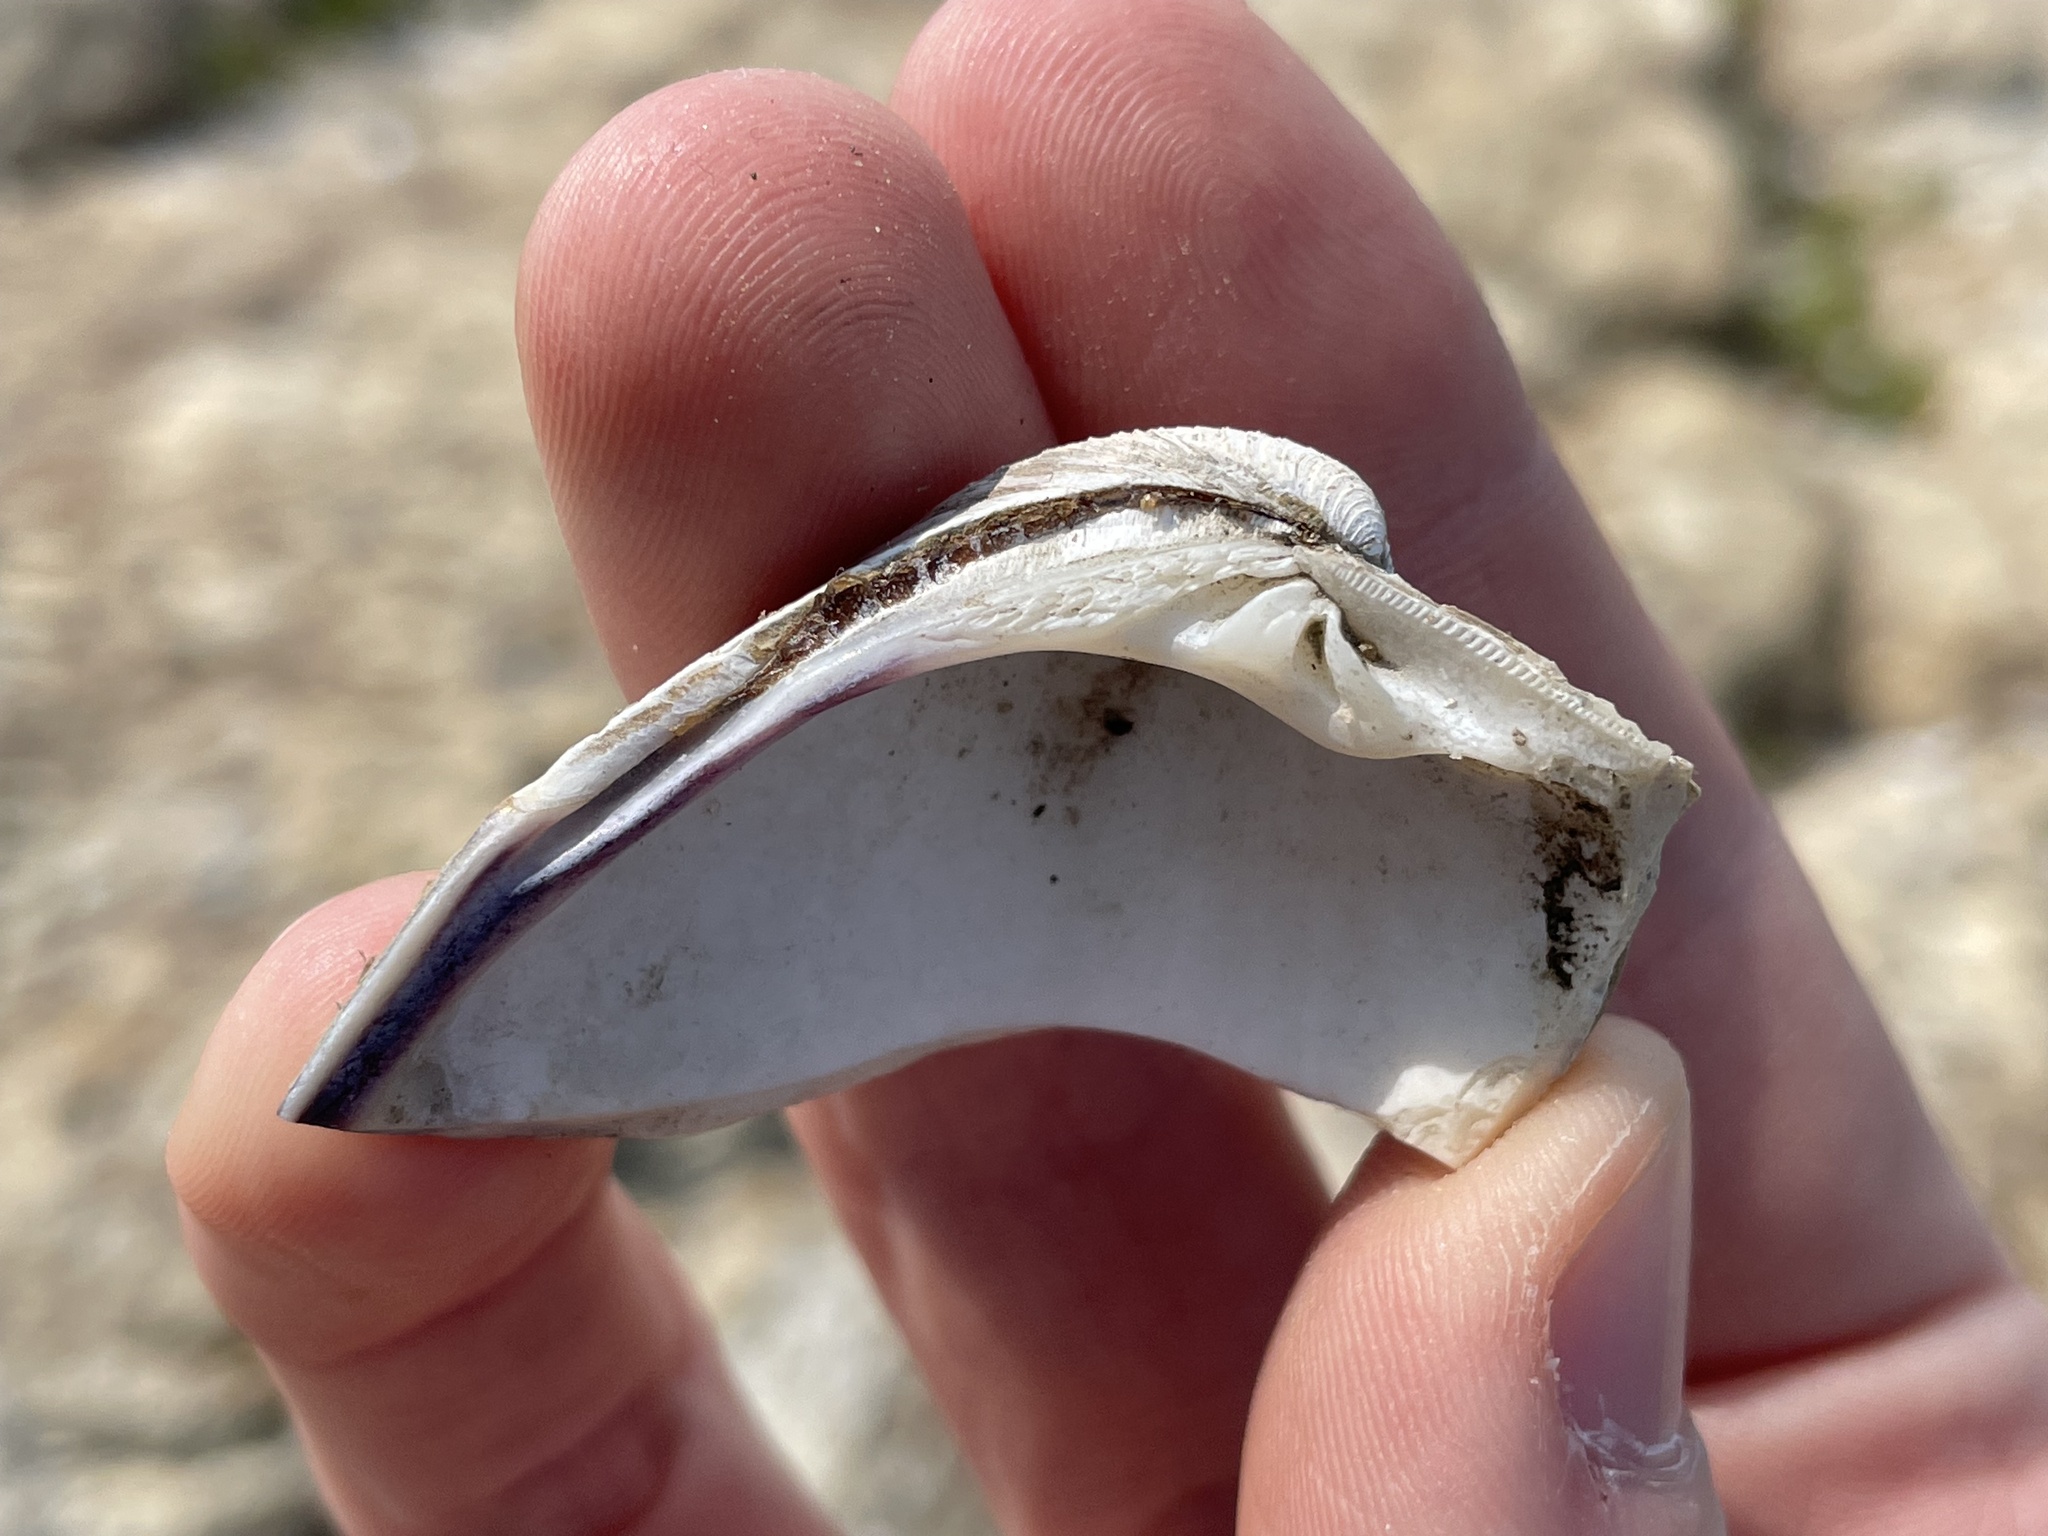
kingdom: Animalia
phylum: Mollusca
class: Bivalvia
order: Venerida
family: Veneridae
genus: Mercenaria
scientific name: Mercenaria mercenaria
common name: American hard-shelled clam
